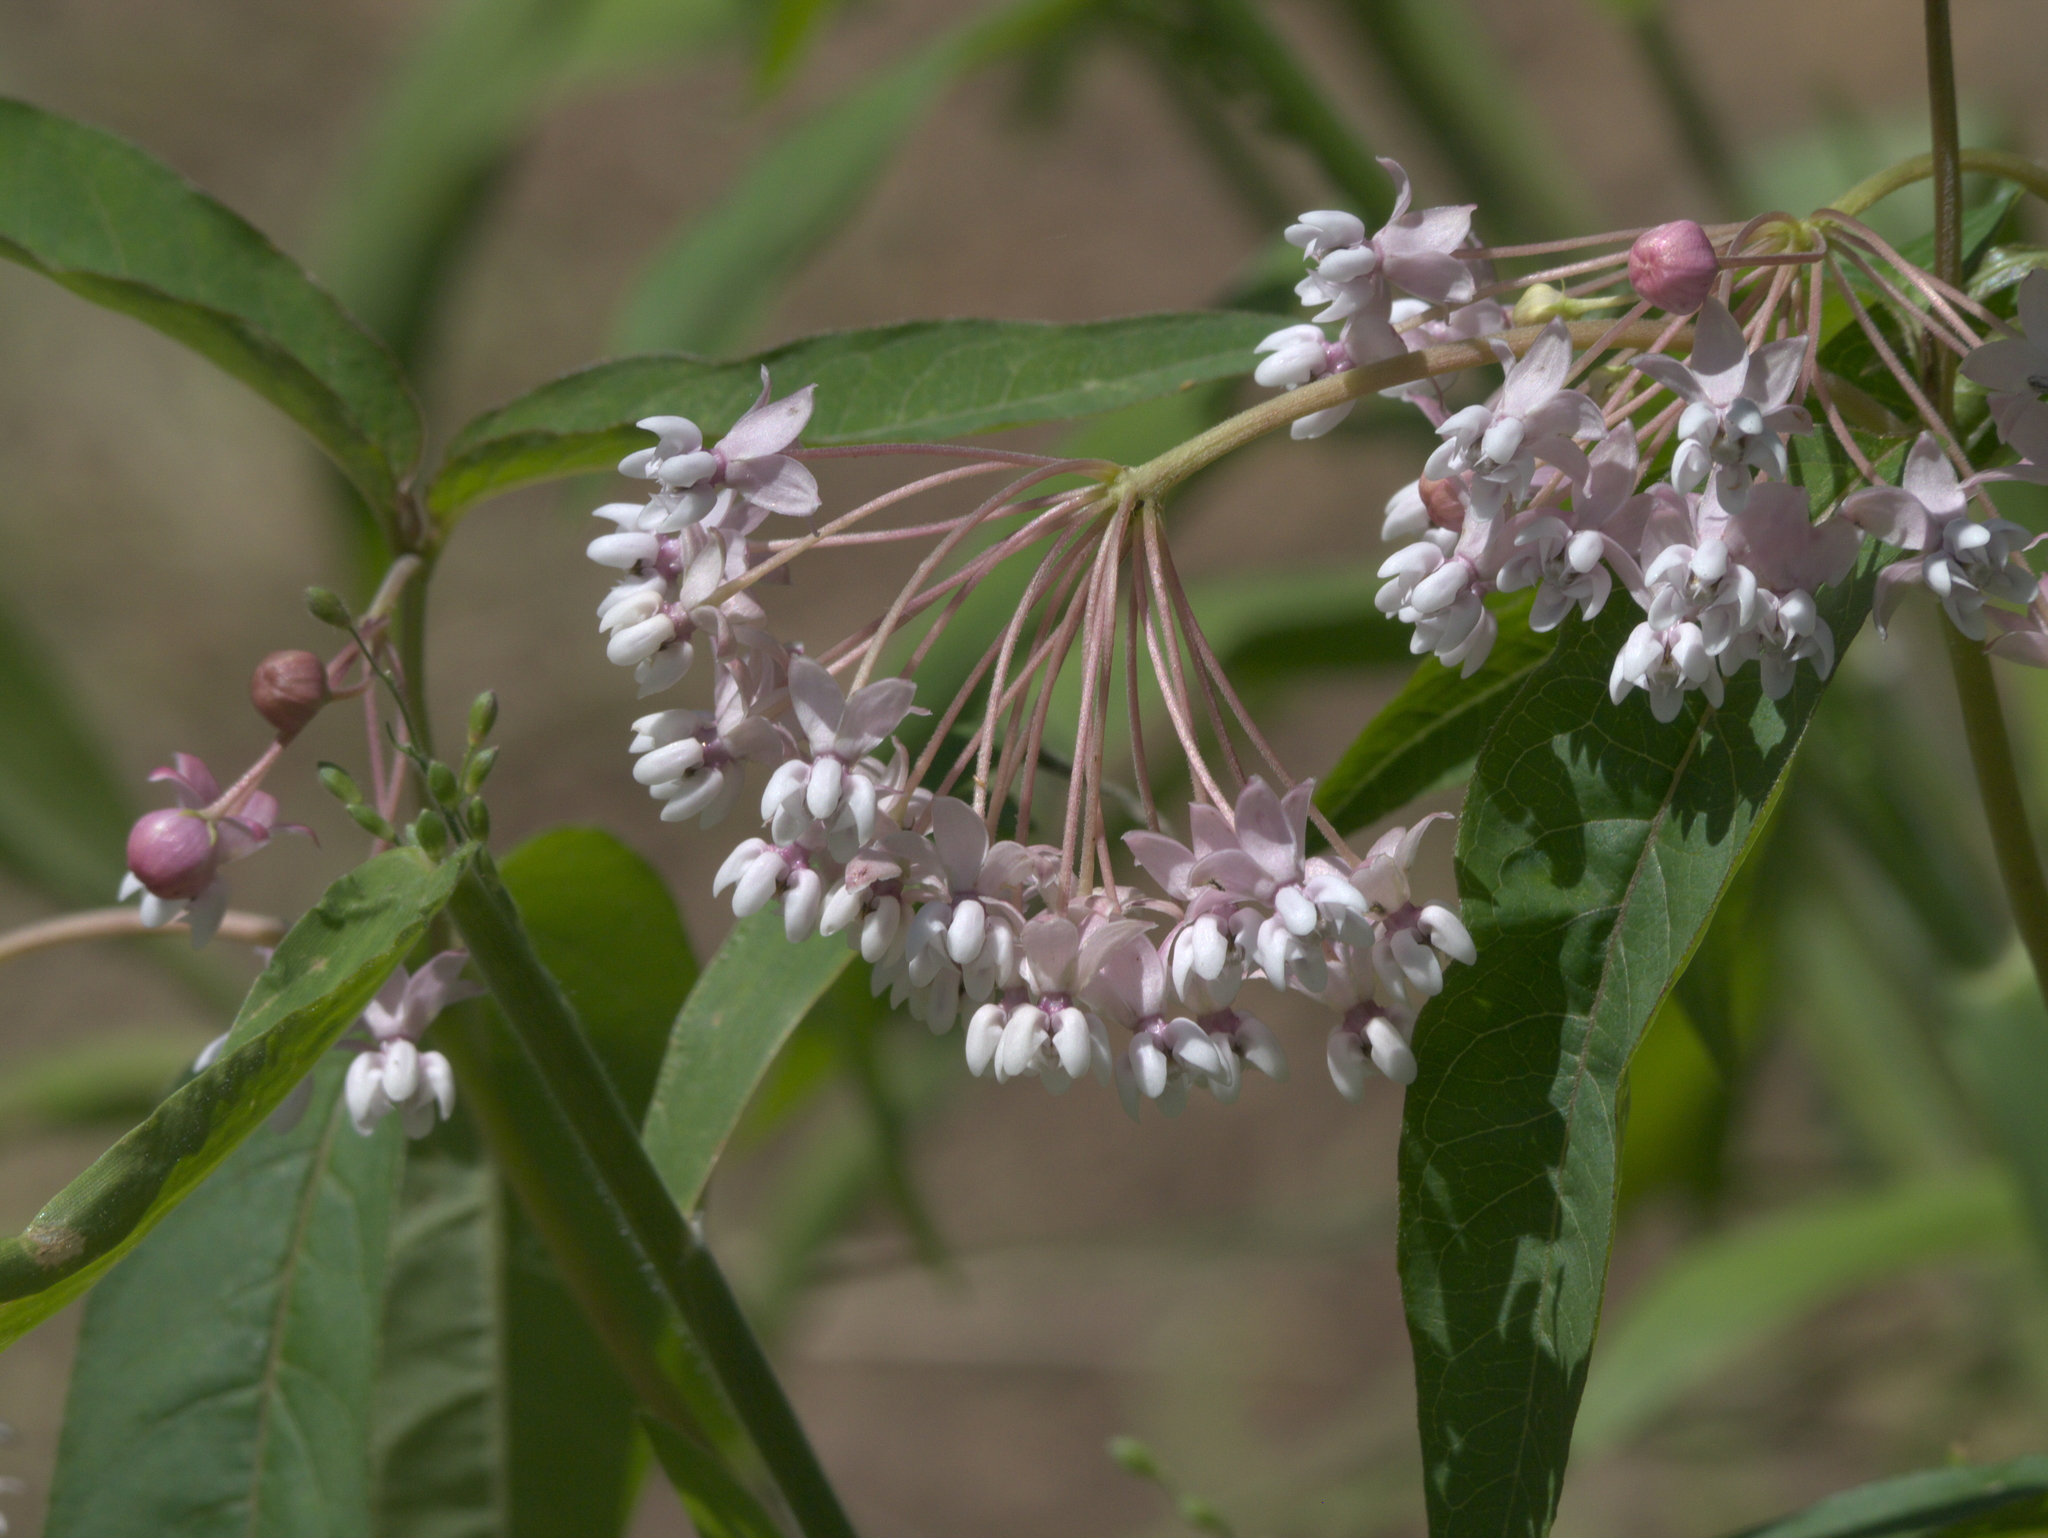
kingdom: Plantae
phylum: Tracheophyta
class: Magnoliopsida
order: Gentianales
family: Apocynaceae
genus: Asclepias
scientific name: Asclepias quadrifolia
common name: Whorled milkweed
